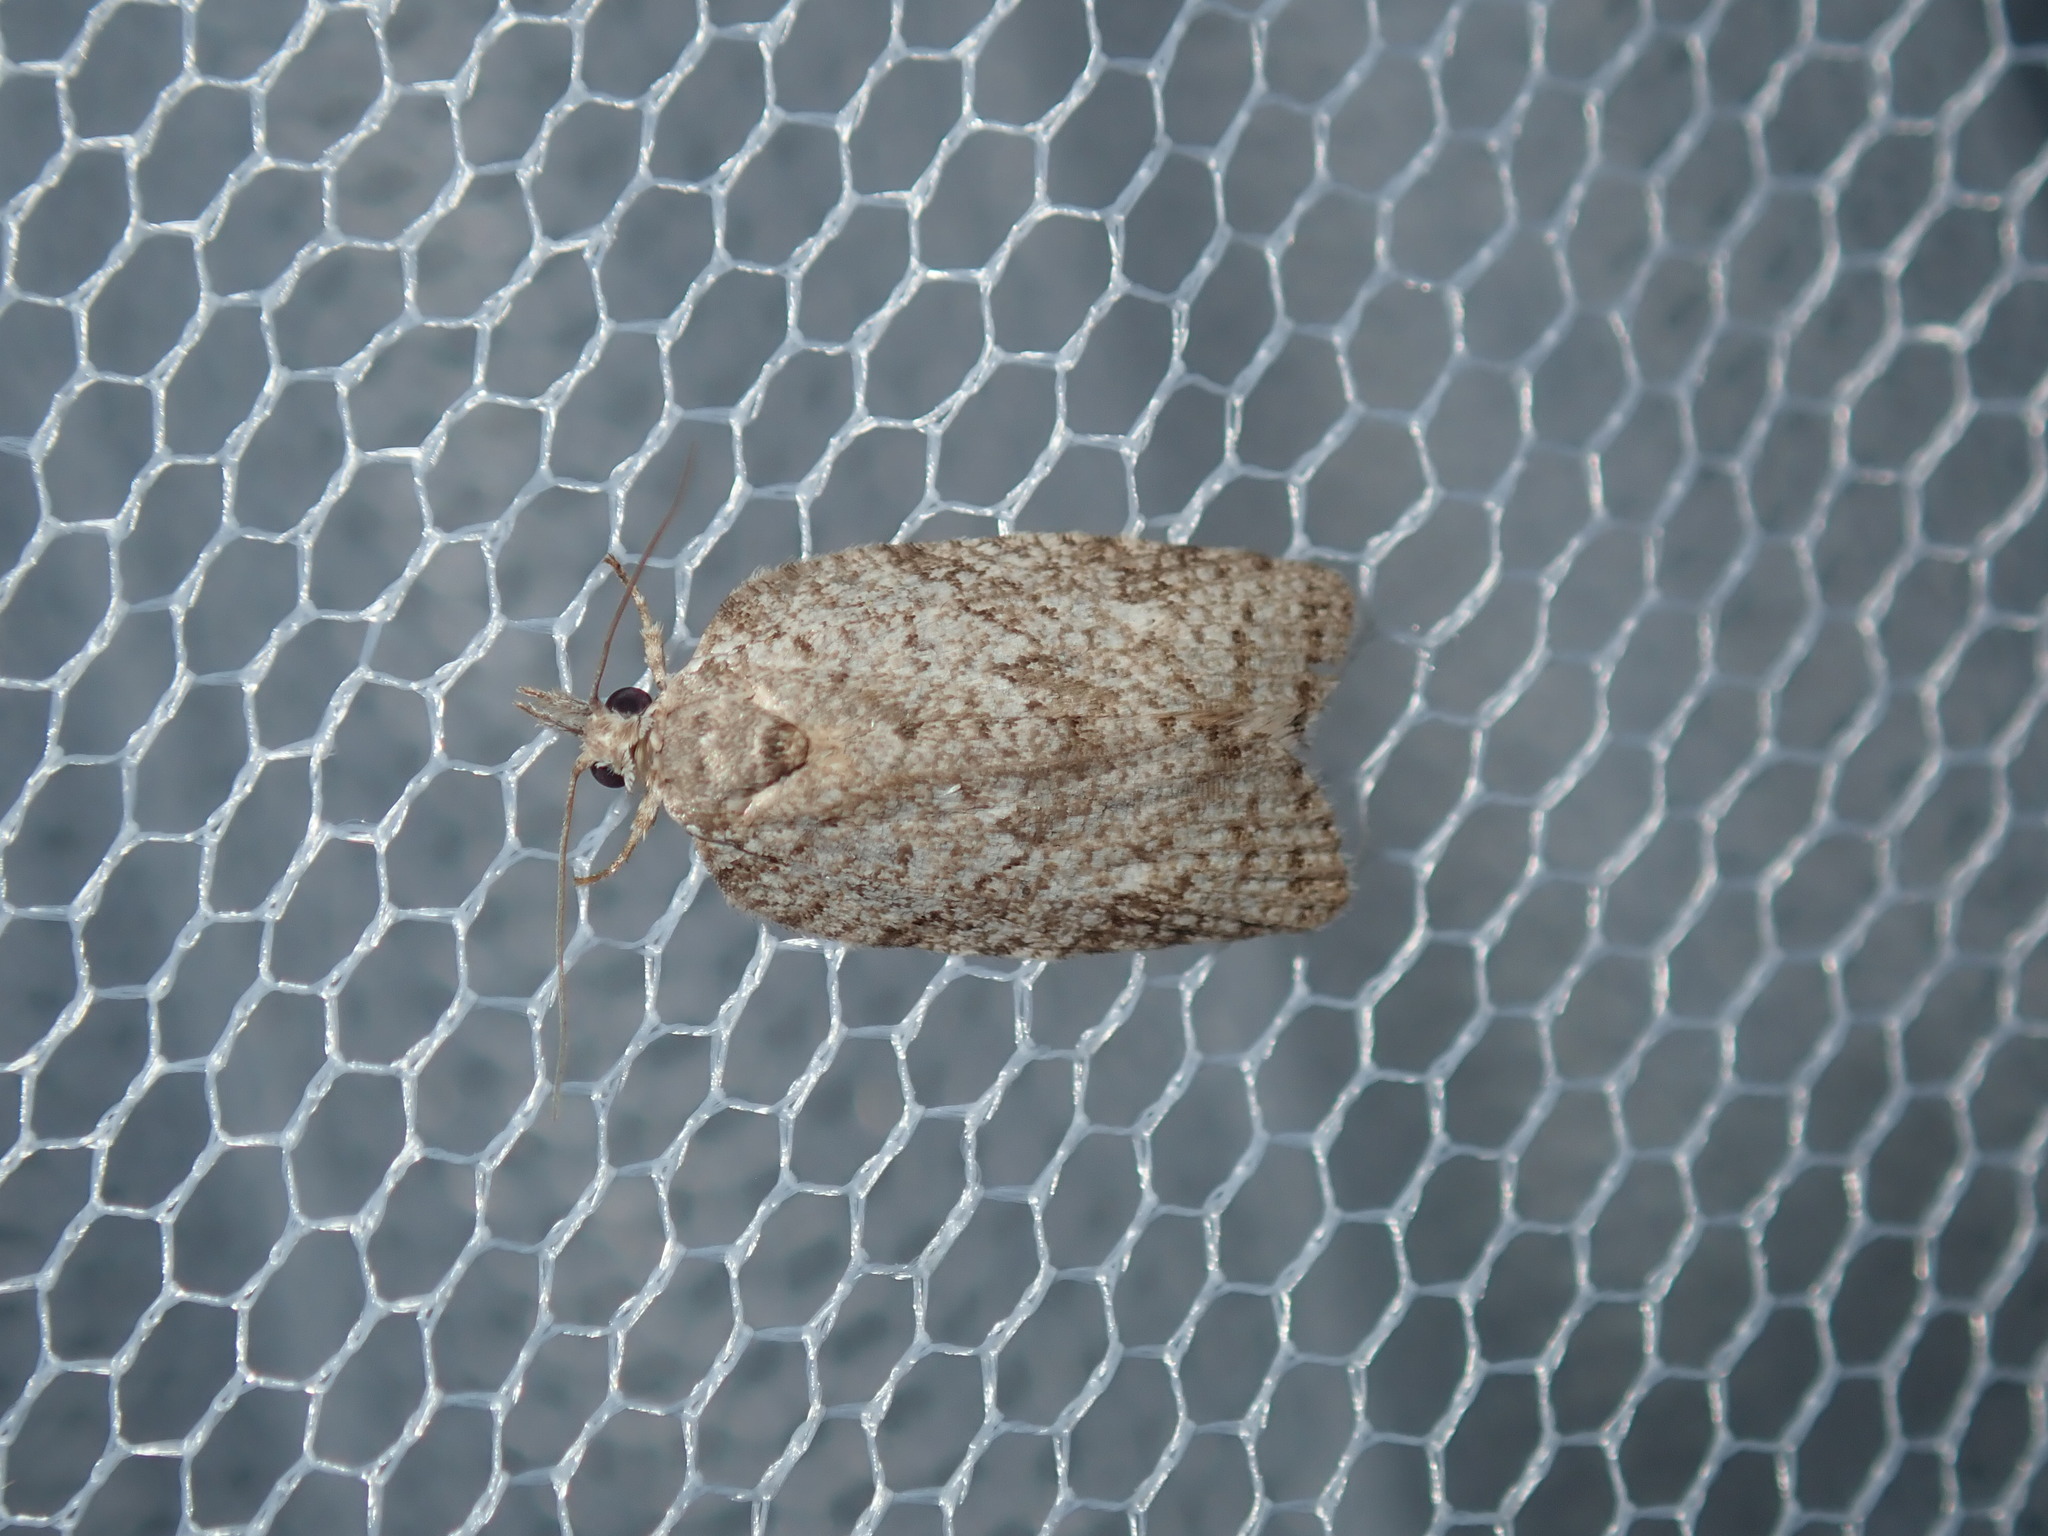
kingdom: Animalia
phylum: Arthropoda
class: Insecta
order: Lepidoptera
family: Tortricidae
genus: Isotenes
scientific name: Isotenes miserana
